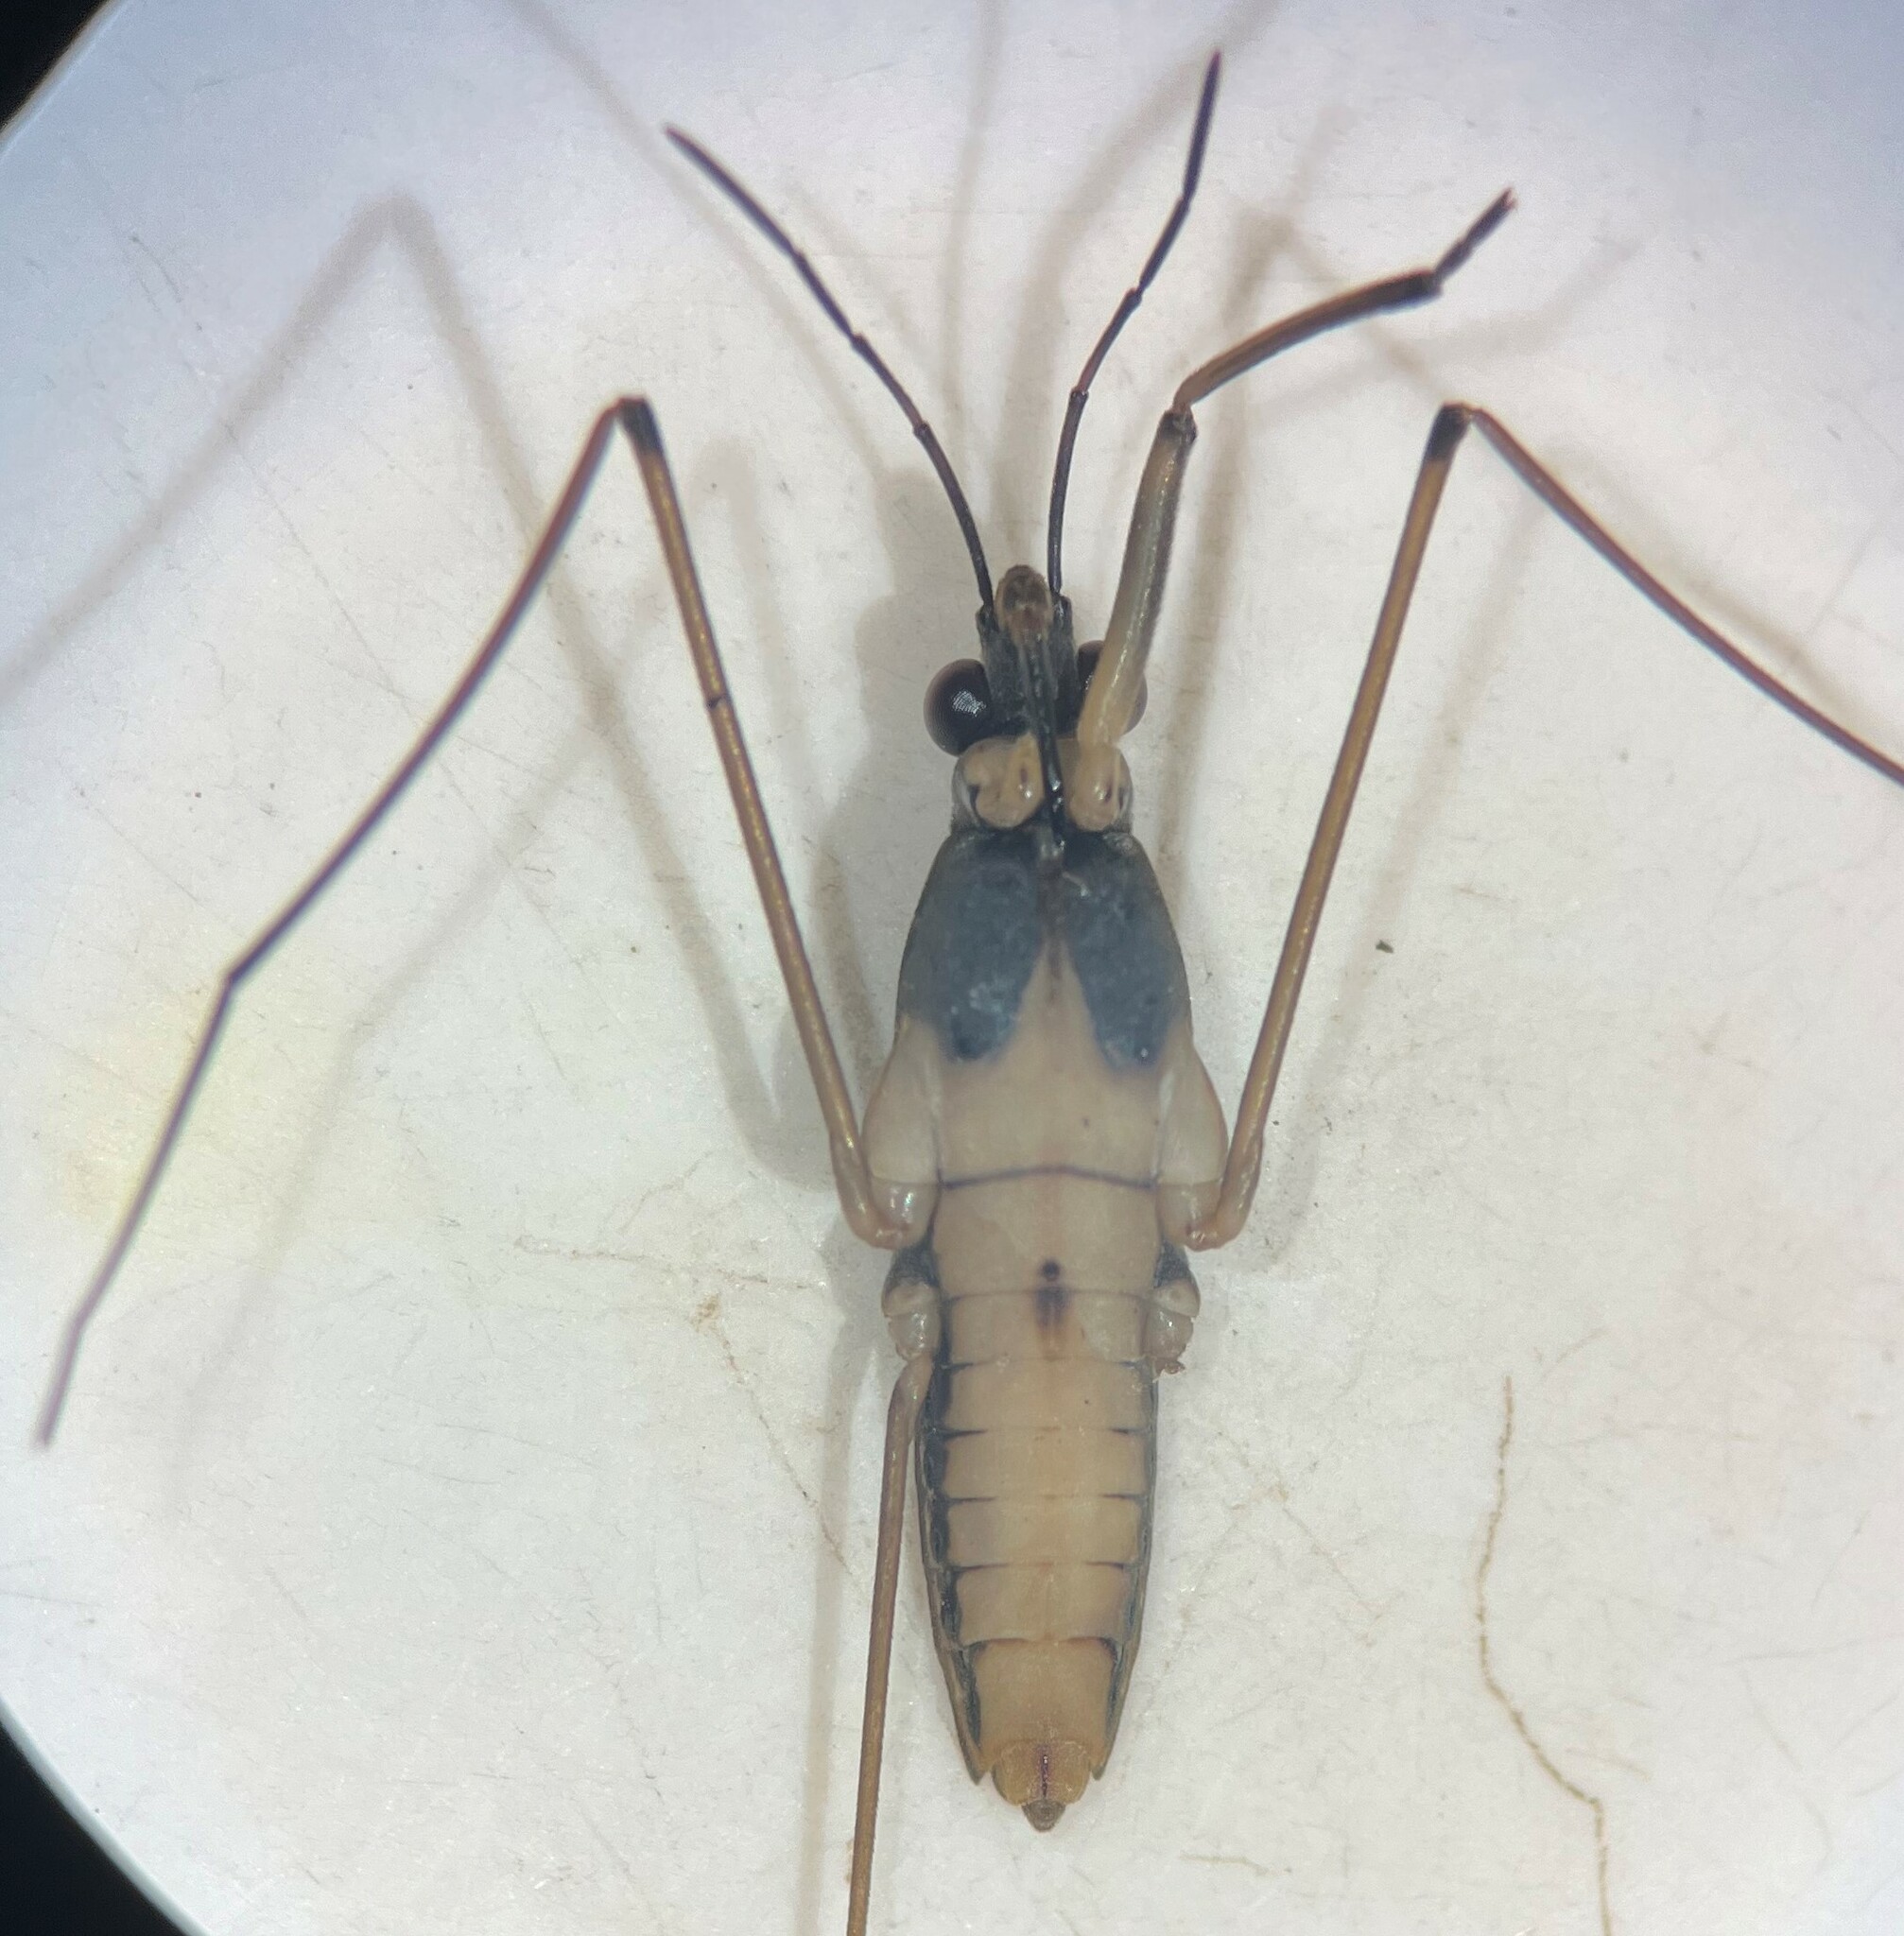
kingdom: Animalia
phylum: Arthropoda
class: Insecta
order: Hemiptera
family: Gerridae
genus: Gerris
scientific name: Gerris buenoi
